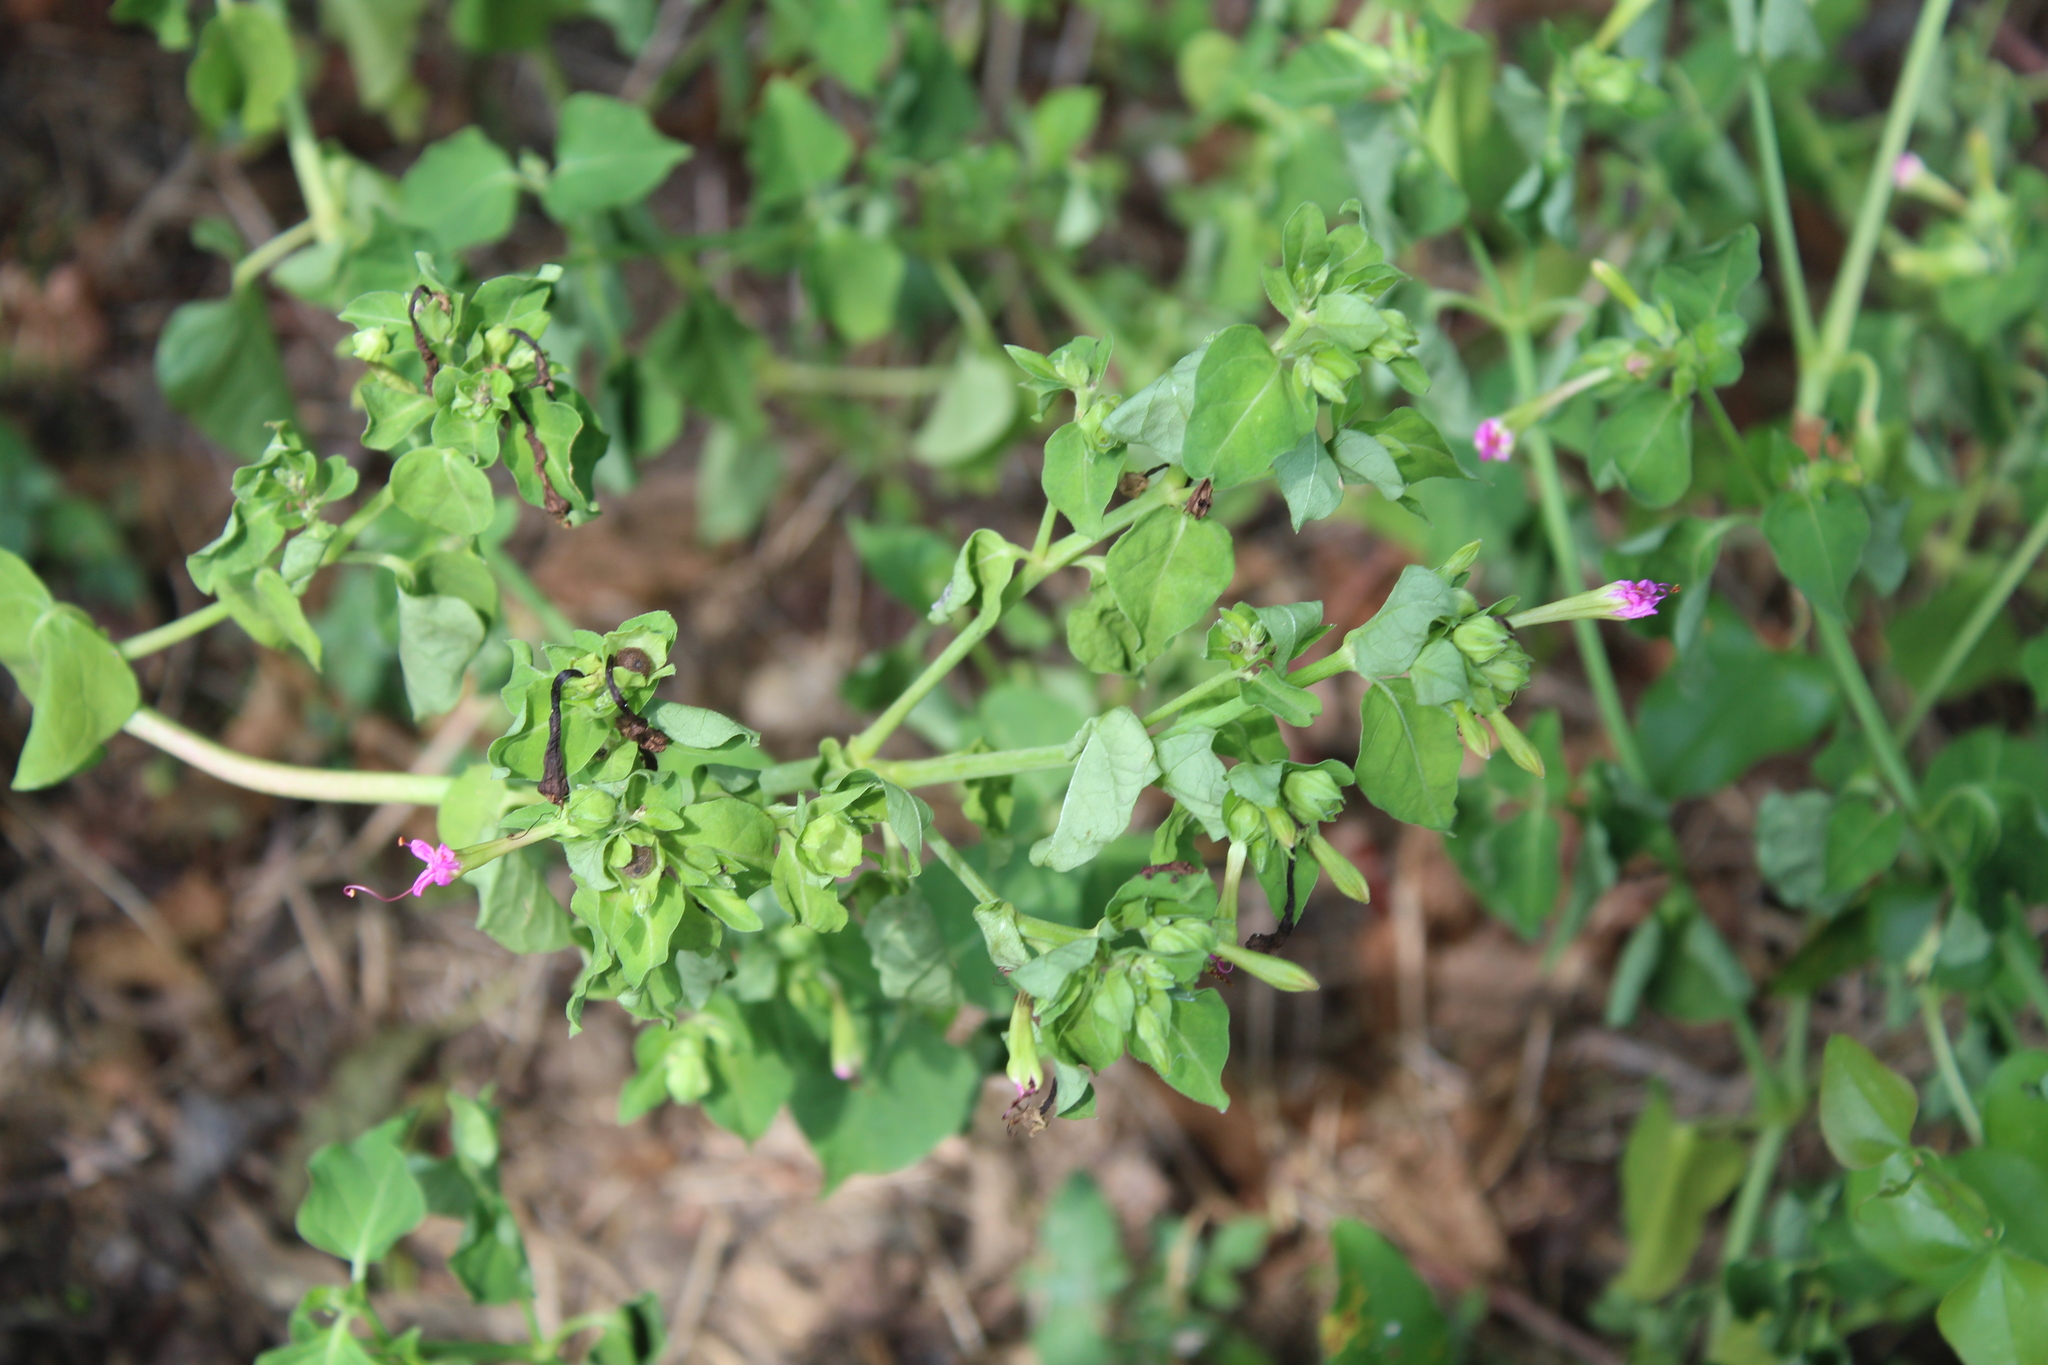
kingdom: Plantae
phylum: Tracheophyta
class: Magnoliopsida
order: Caryophyllales
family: Nyctaginaceae
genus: Mirabilis
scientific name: Mirabilis jalapa
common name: Marvel-of-peru
